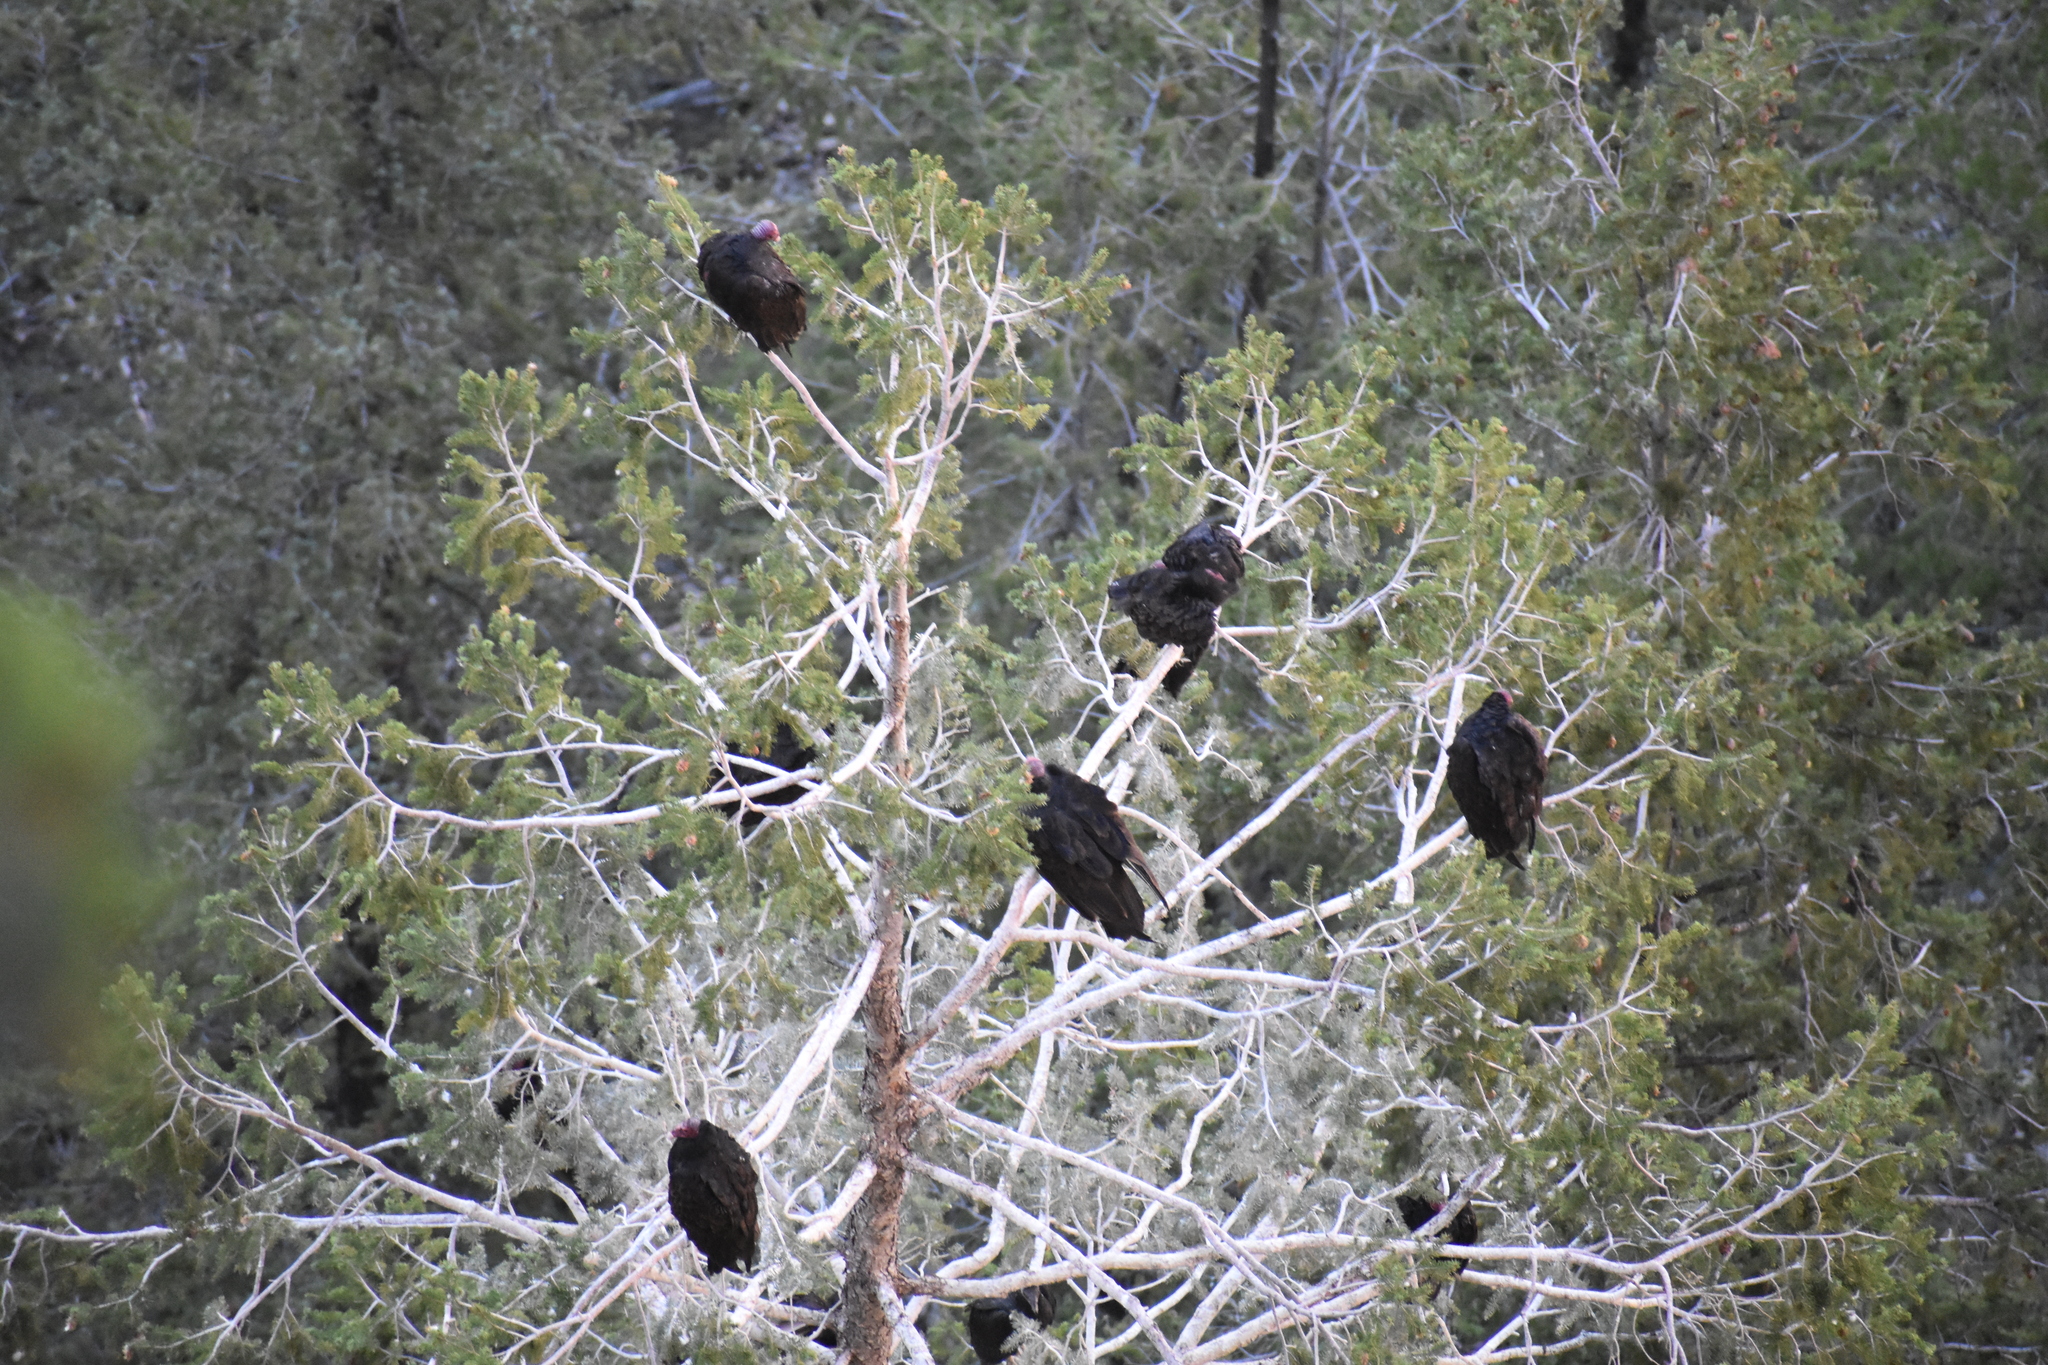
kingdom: Animalia
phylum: Chordata
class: Aves
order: Accipitriformes
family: Cathartidae
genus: Cathartes
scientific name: Cathartes aura
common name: Turkey vulture
